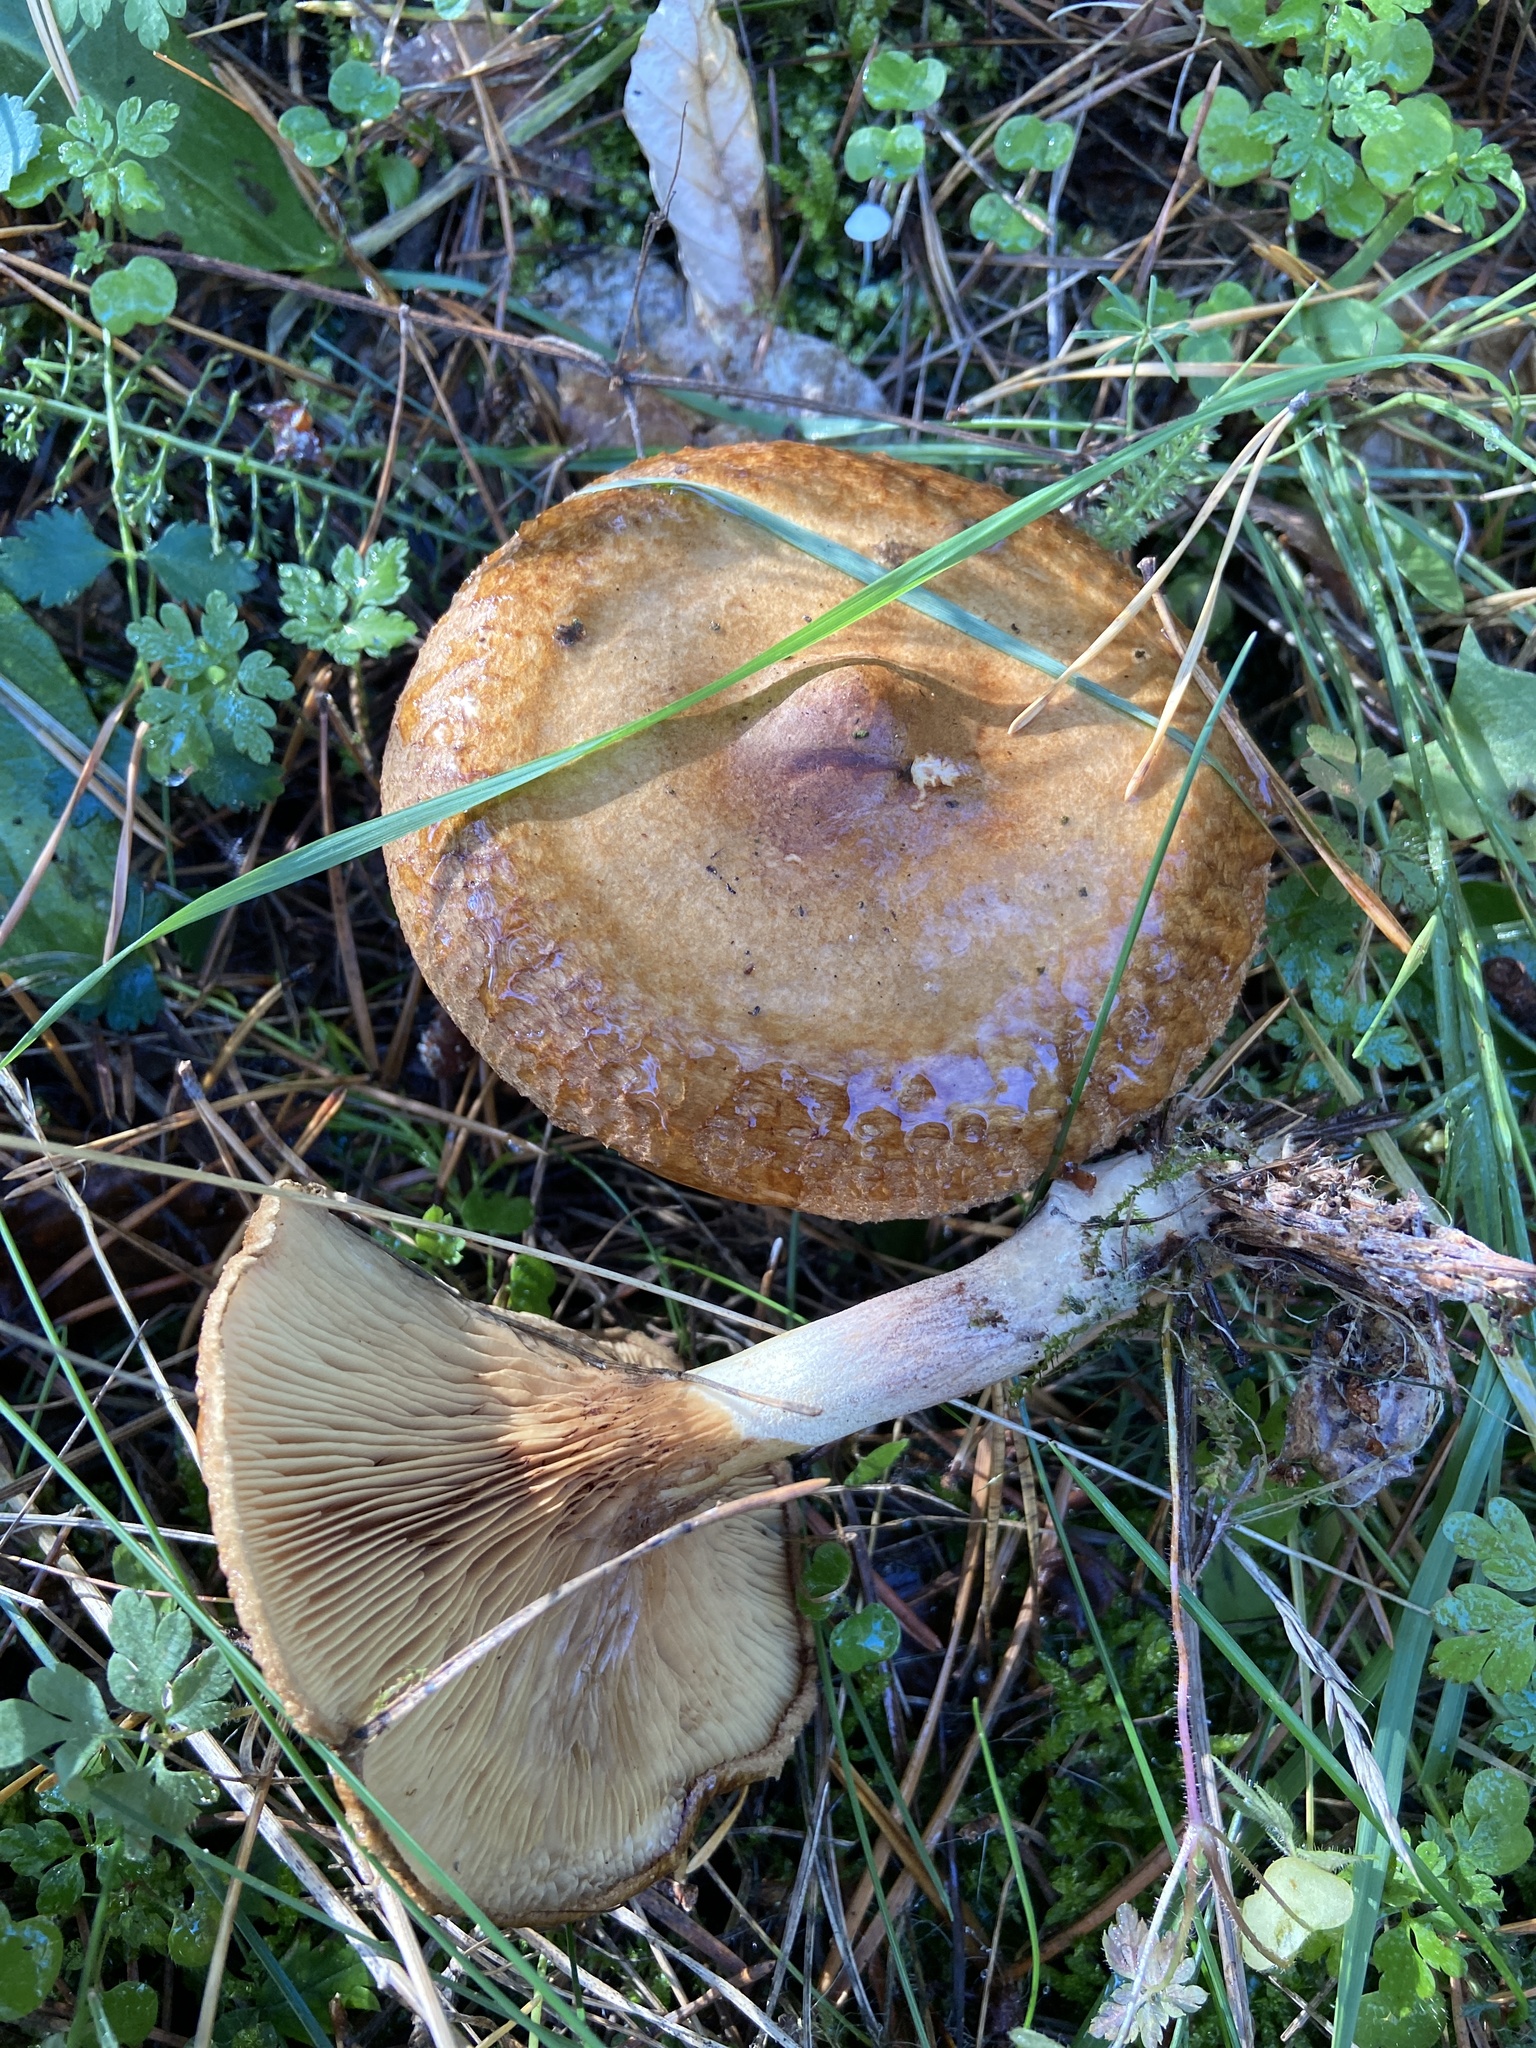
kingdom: Fungi
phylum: Basidiomycota
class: Agaricomycetes
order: Boletales
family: Paxillaceae
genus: Paxillus
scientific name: Paxillus involutus
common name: Brown roll rim
